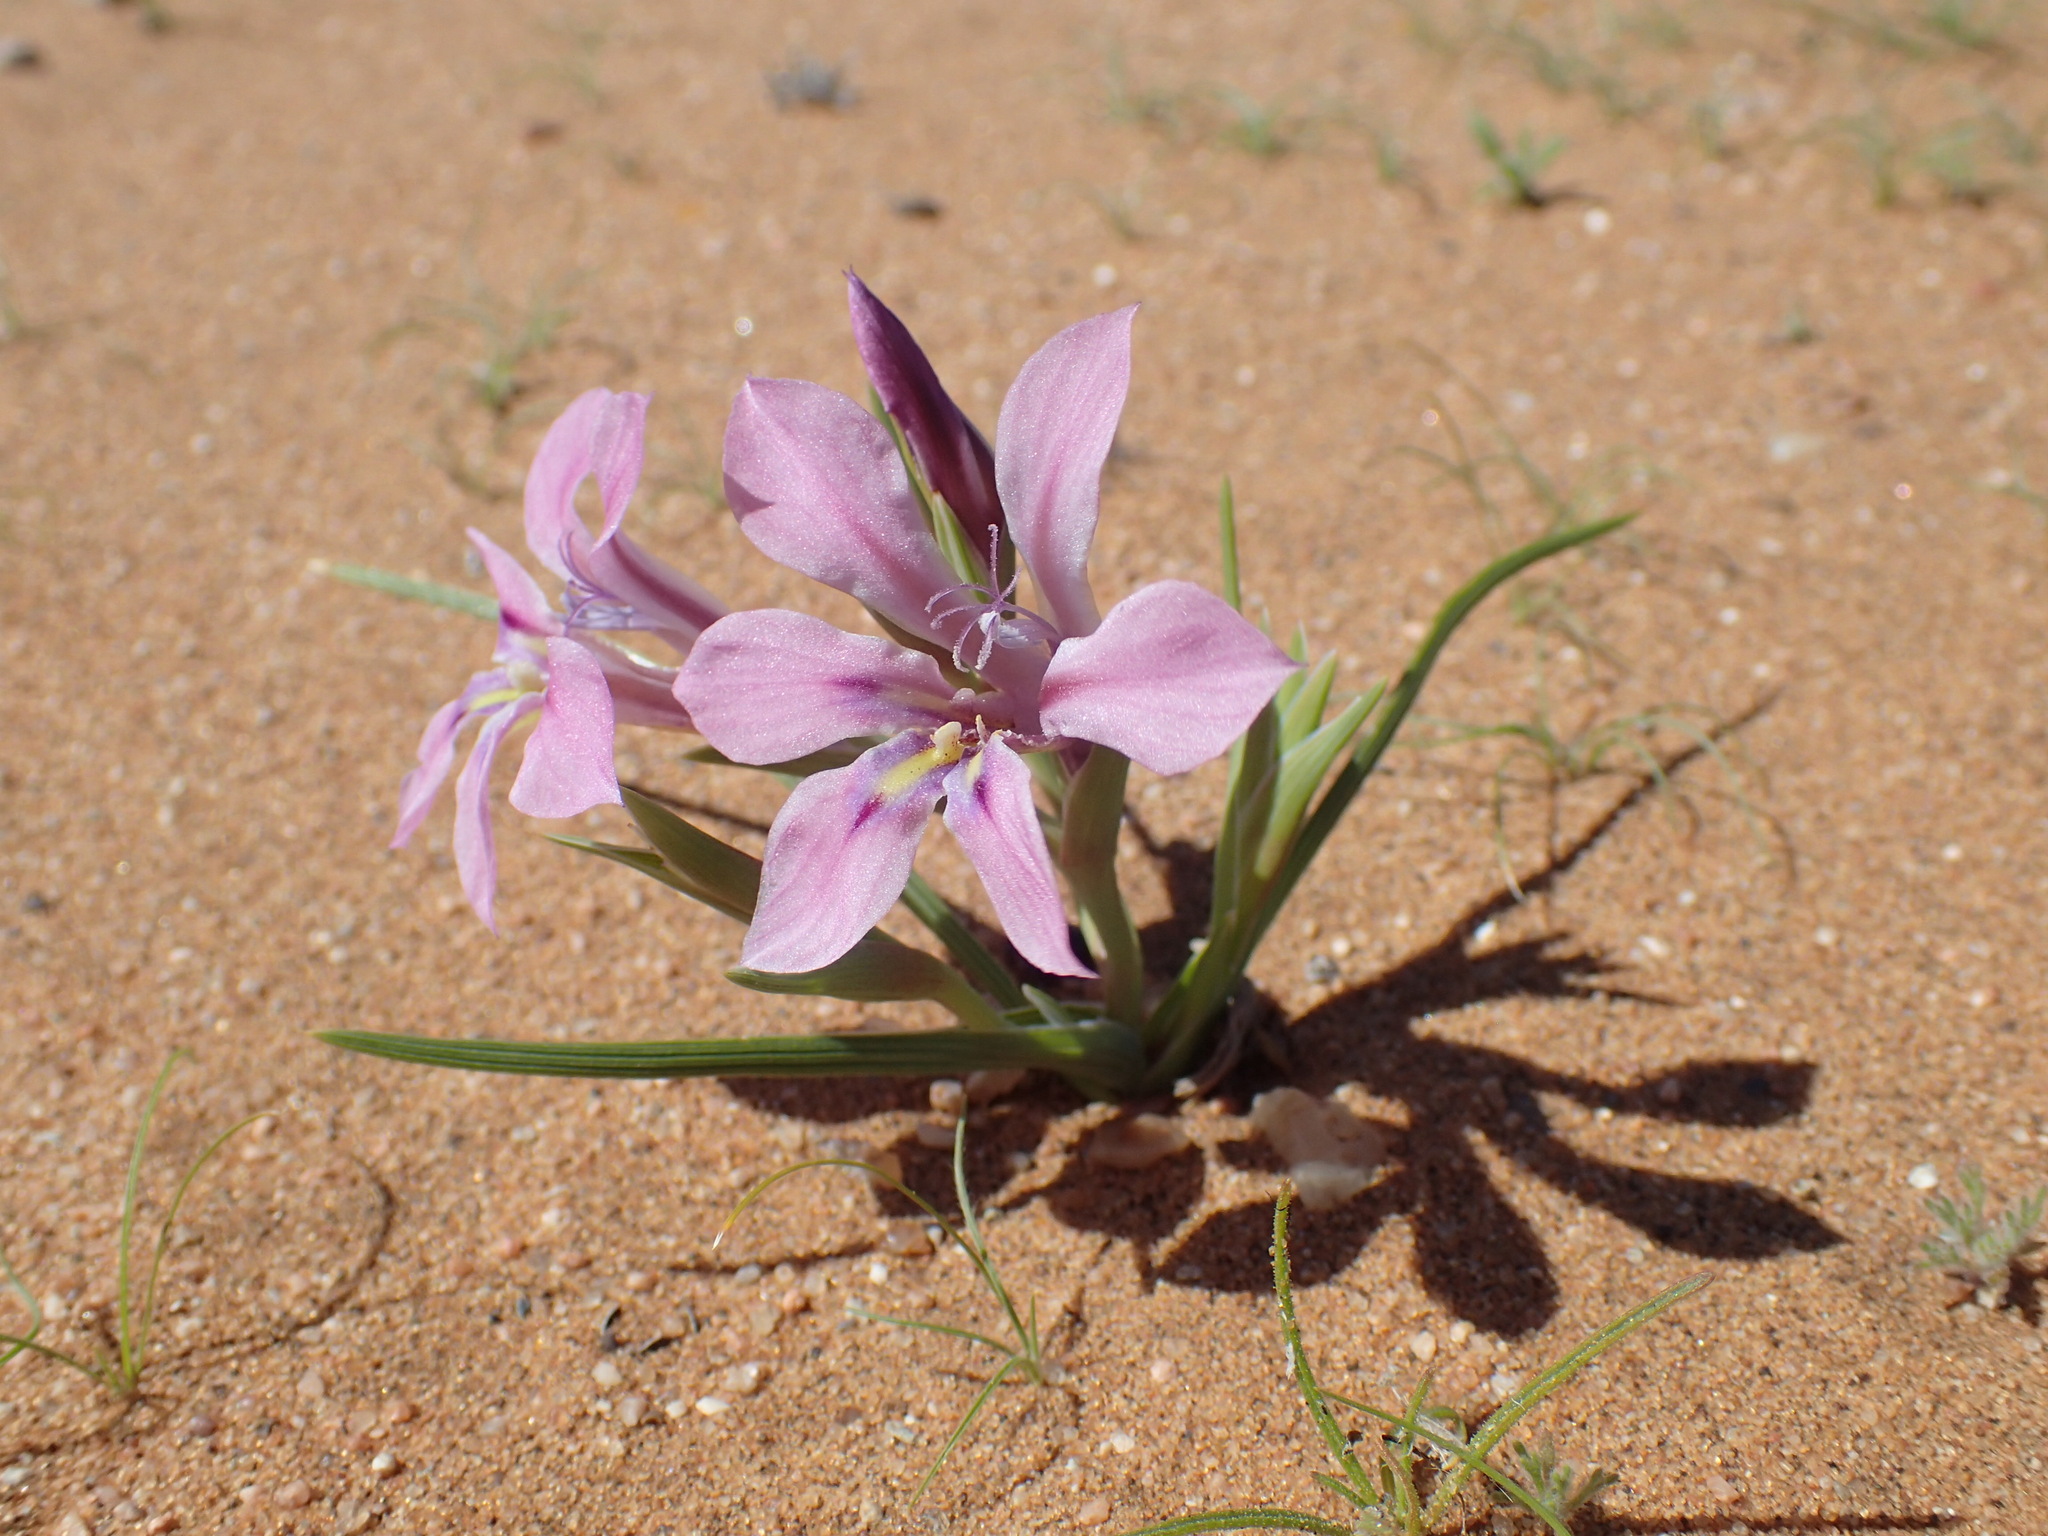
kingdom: Plantae
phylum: Tracheophyta
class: Liliopsida
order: Asparagales
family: Iridaceae
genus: Lapeirousia
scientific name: Lapeirousia barklyi
